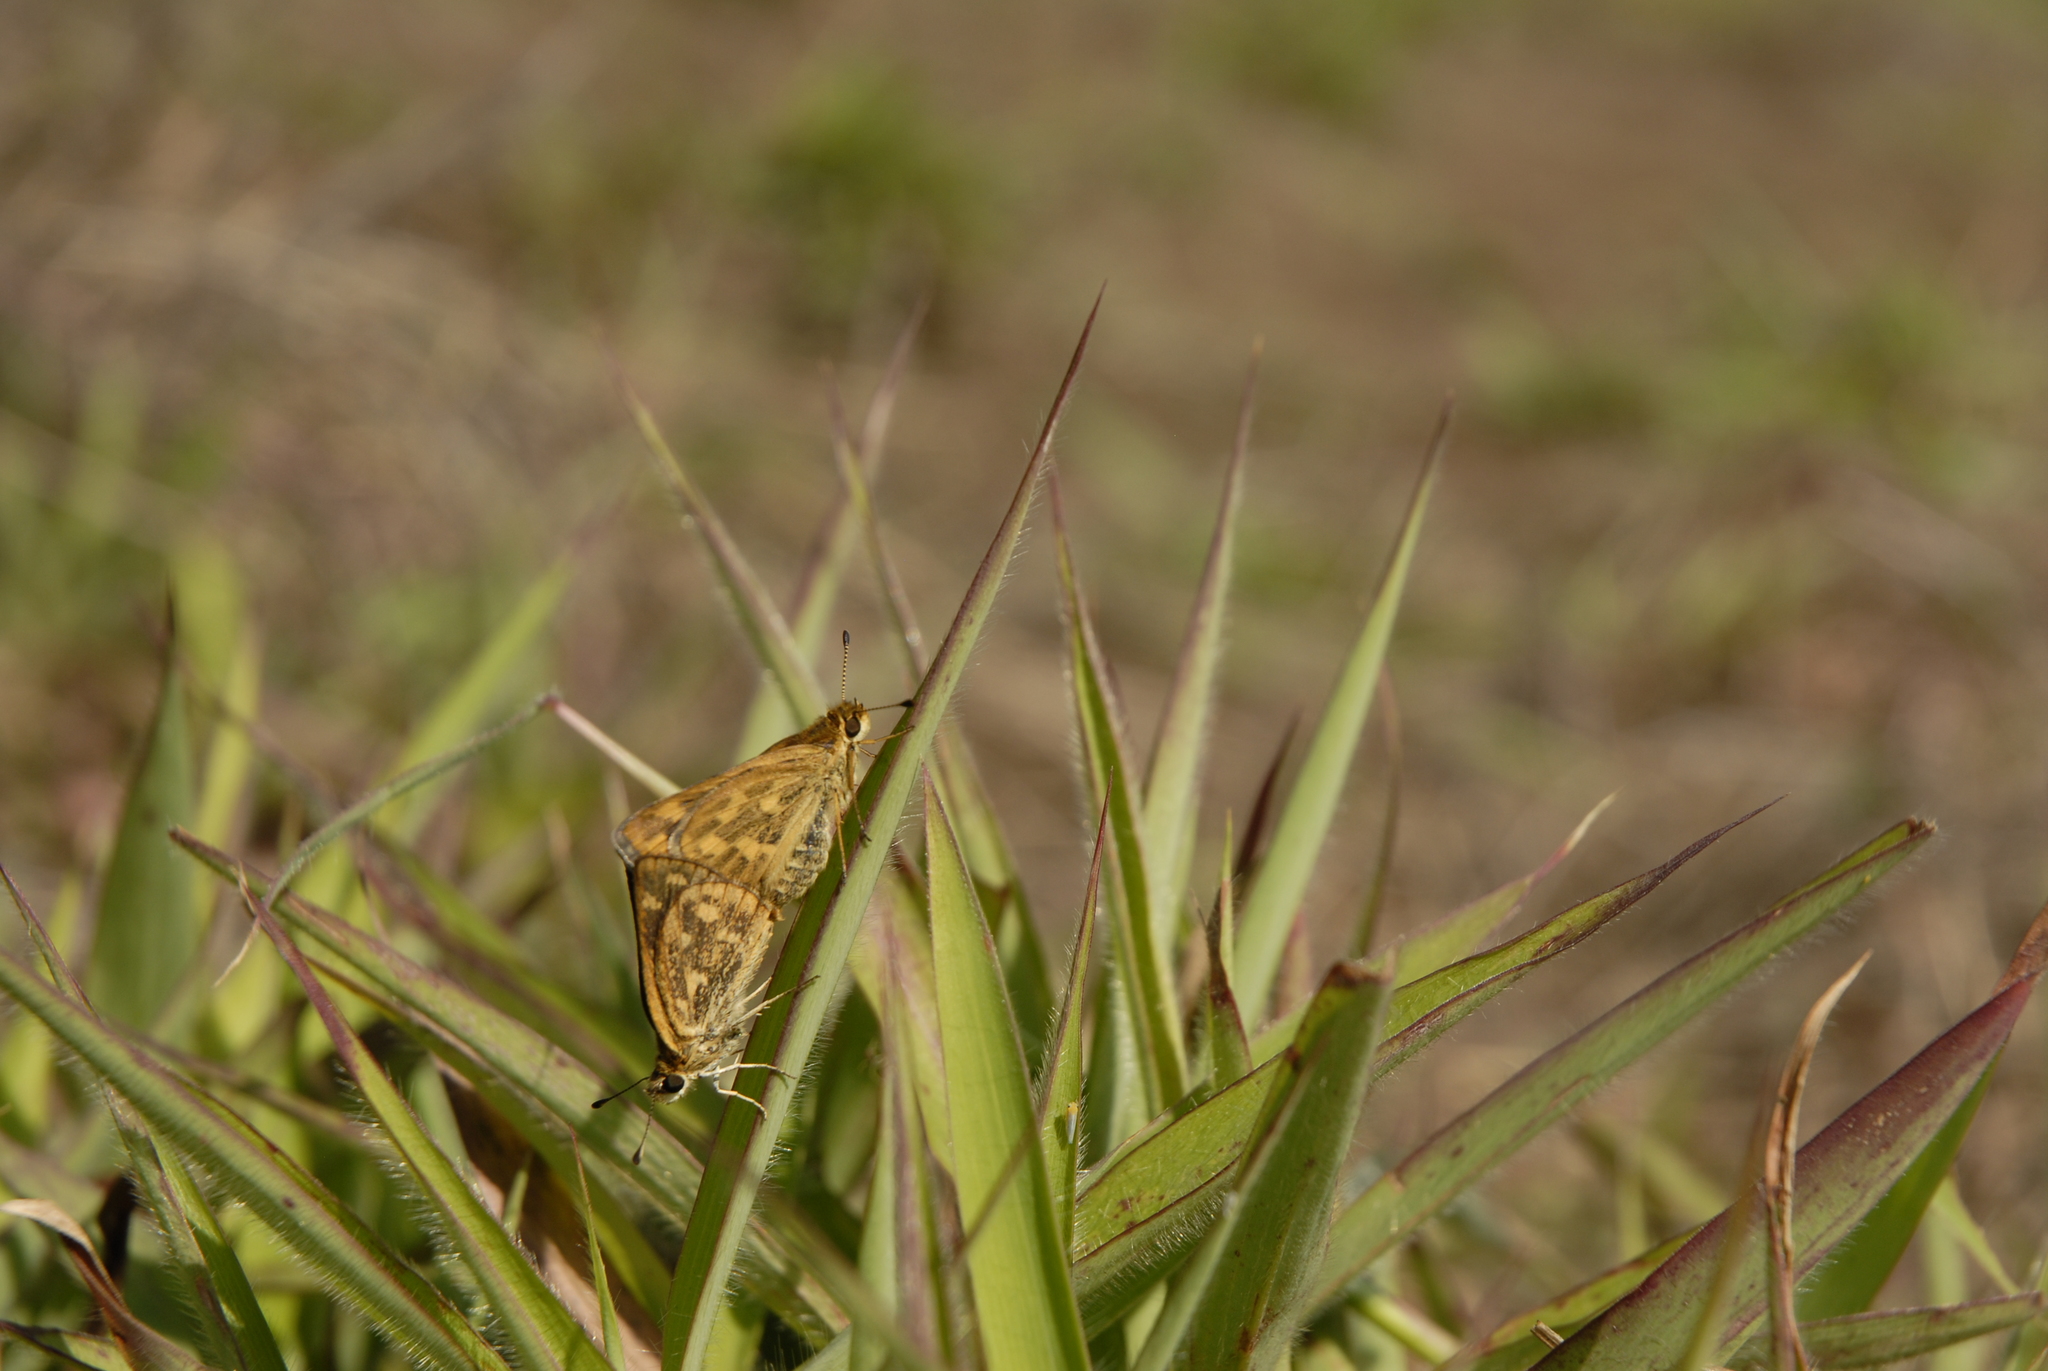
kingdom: Animalia
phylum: Arthropoda
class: Insecta
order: Lepidoptera
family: Hesperiidae
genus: Taractrocera
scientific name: Taractrocera ceramas
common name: Tamil grass dart
